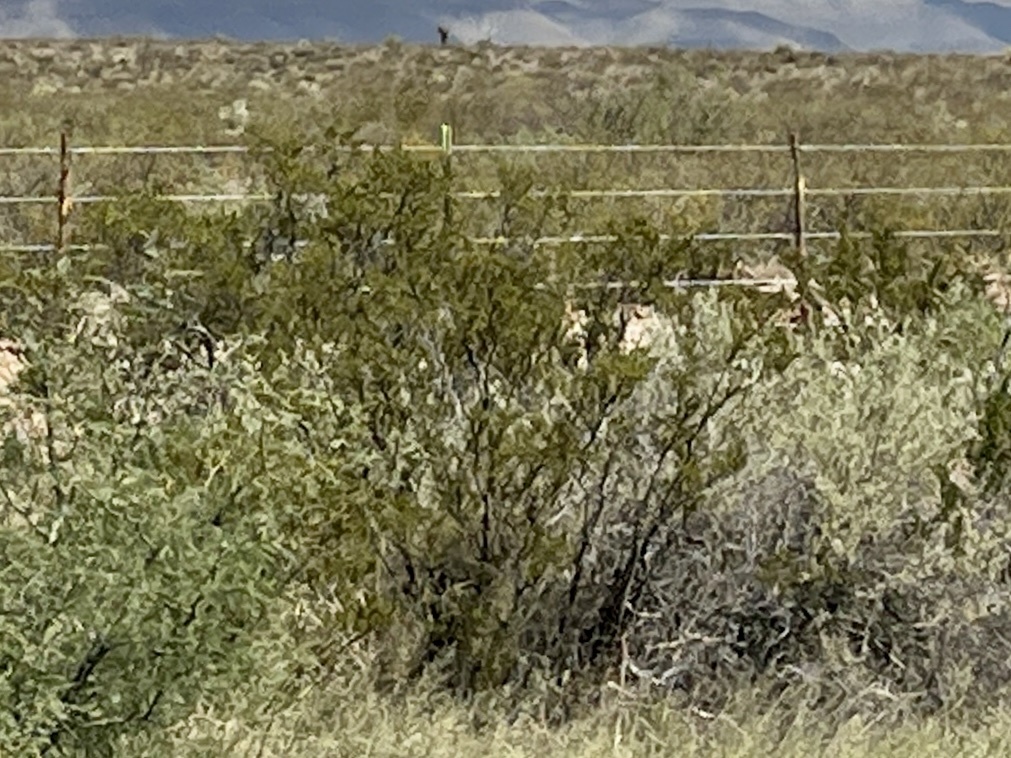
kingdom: Plantae
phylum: Tracheophyta
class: Magnoliopsida
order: Zygophyllales
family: Zygophyllaceae
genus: Larrea
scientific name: Larrea tridentata
